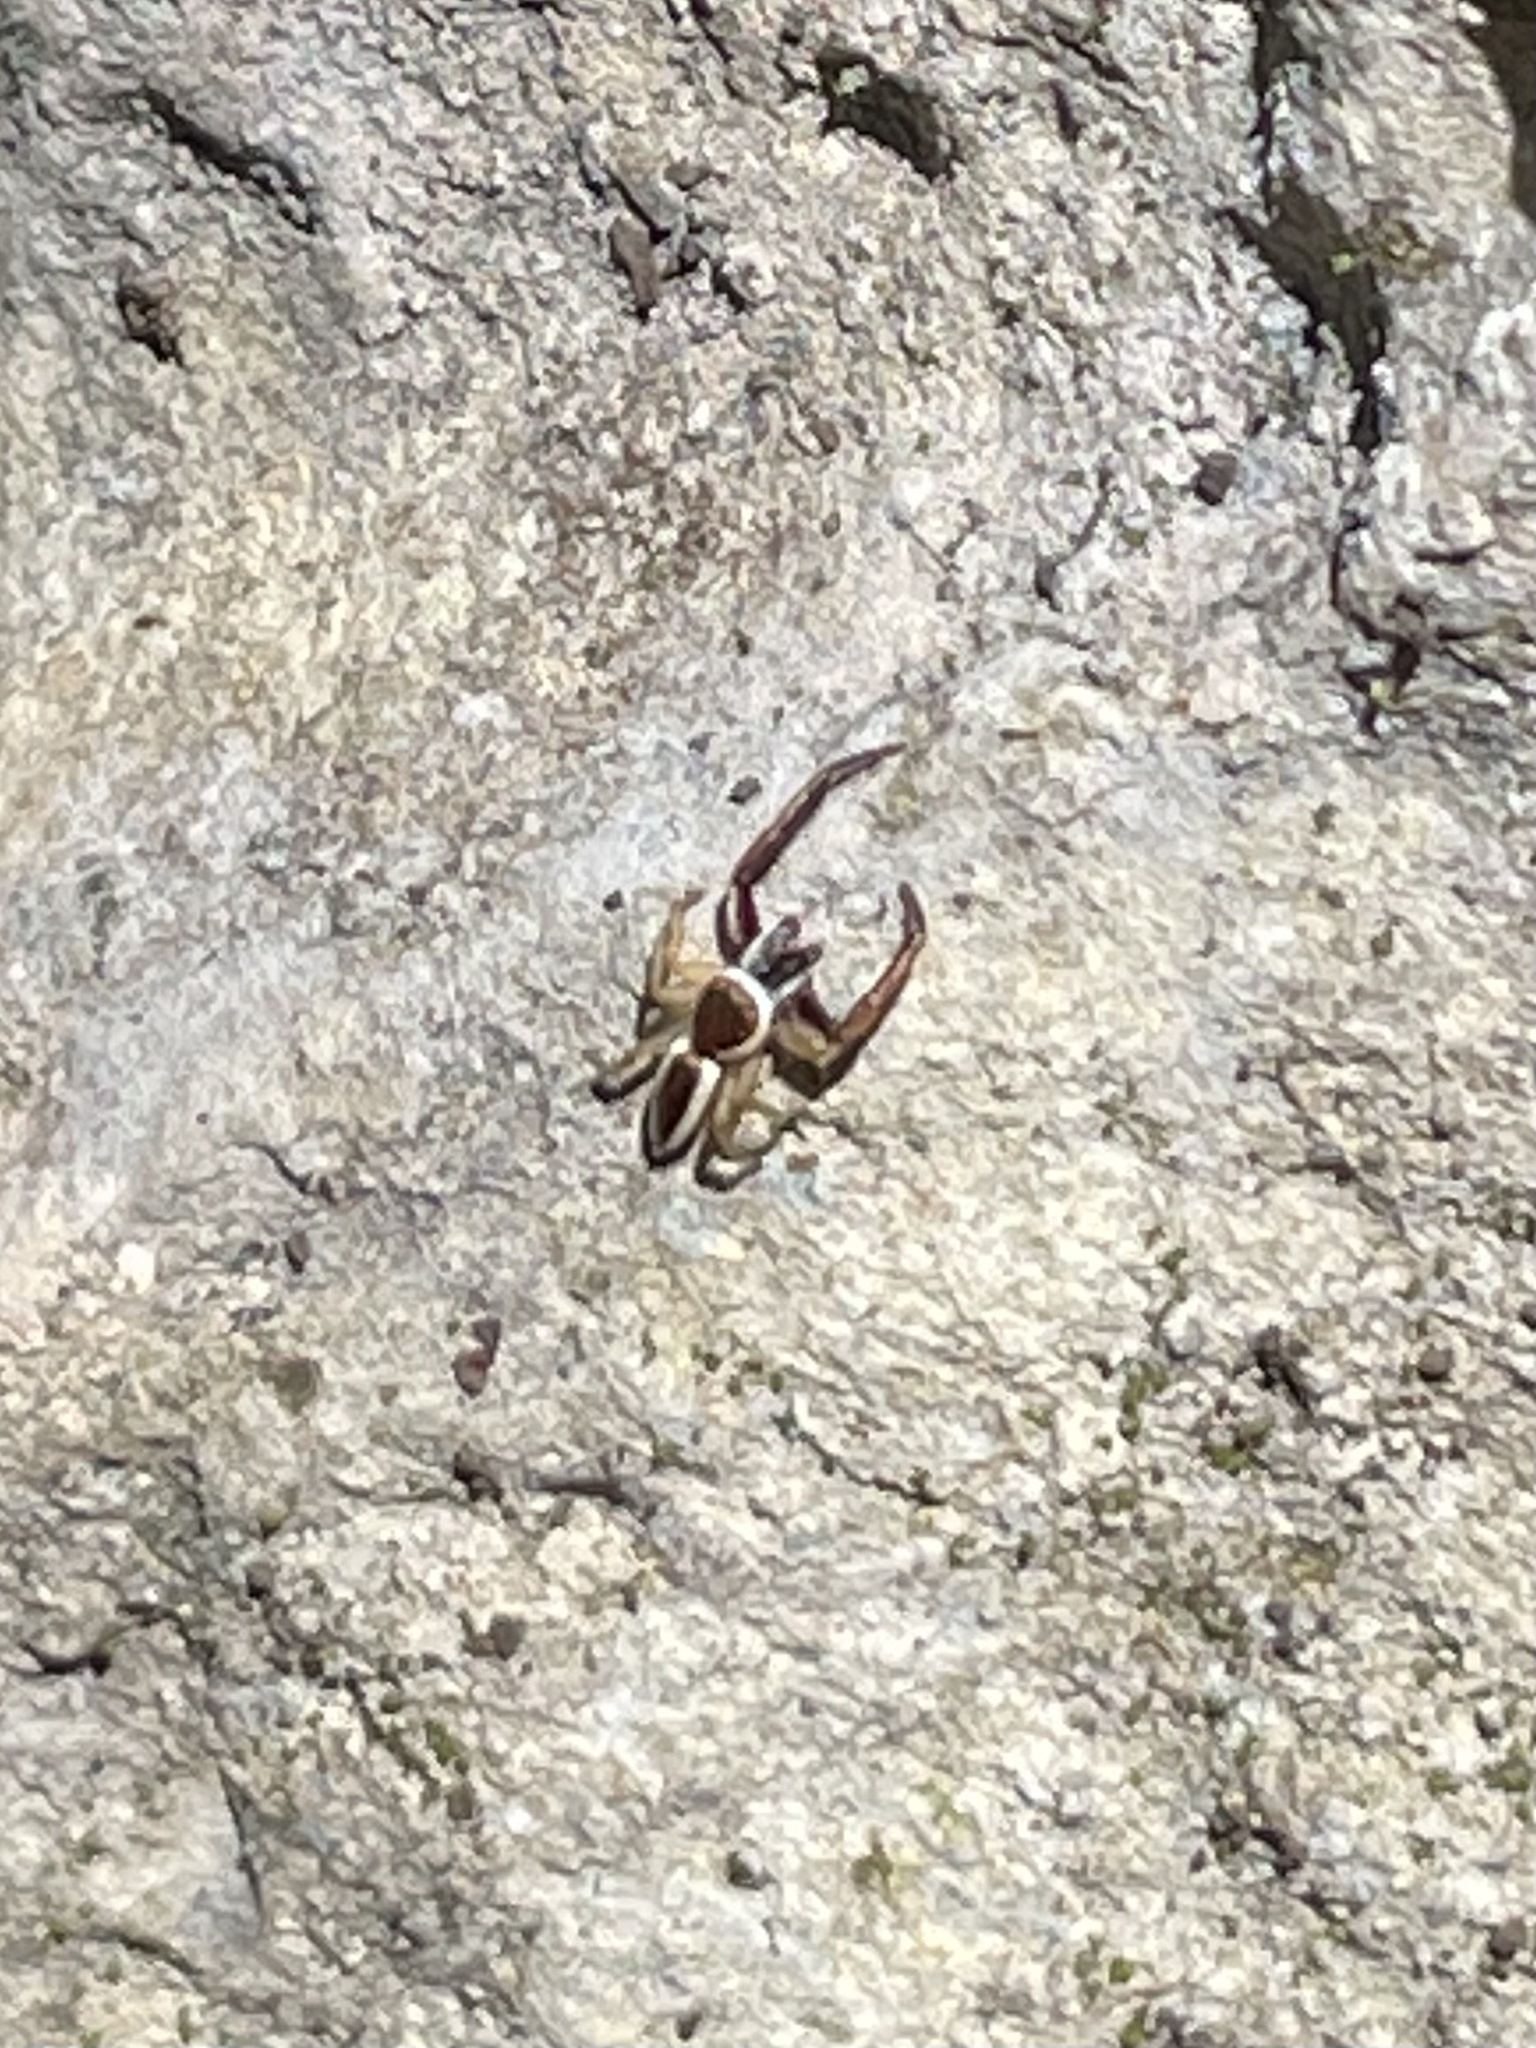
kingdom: Animalia
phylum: Arthropoda
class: Arachnida
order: Araneae
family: Salticidae
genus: Hentzia
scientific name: Hentzia palmarum
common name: Common hentz jumping spider
